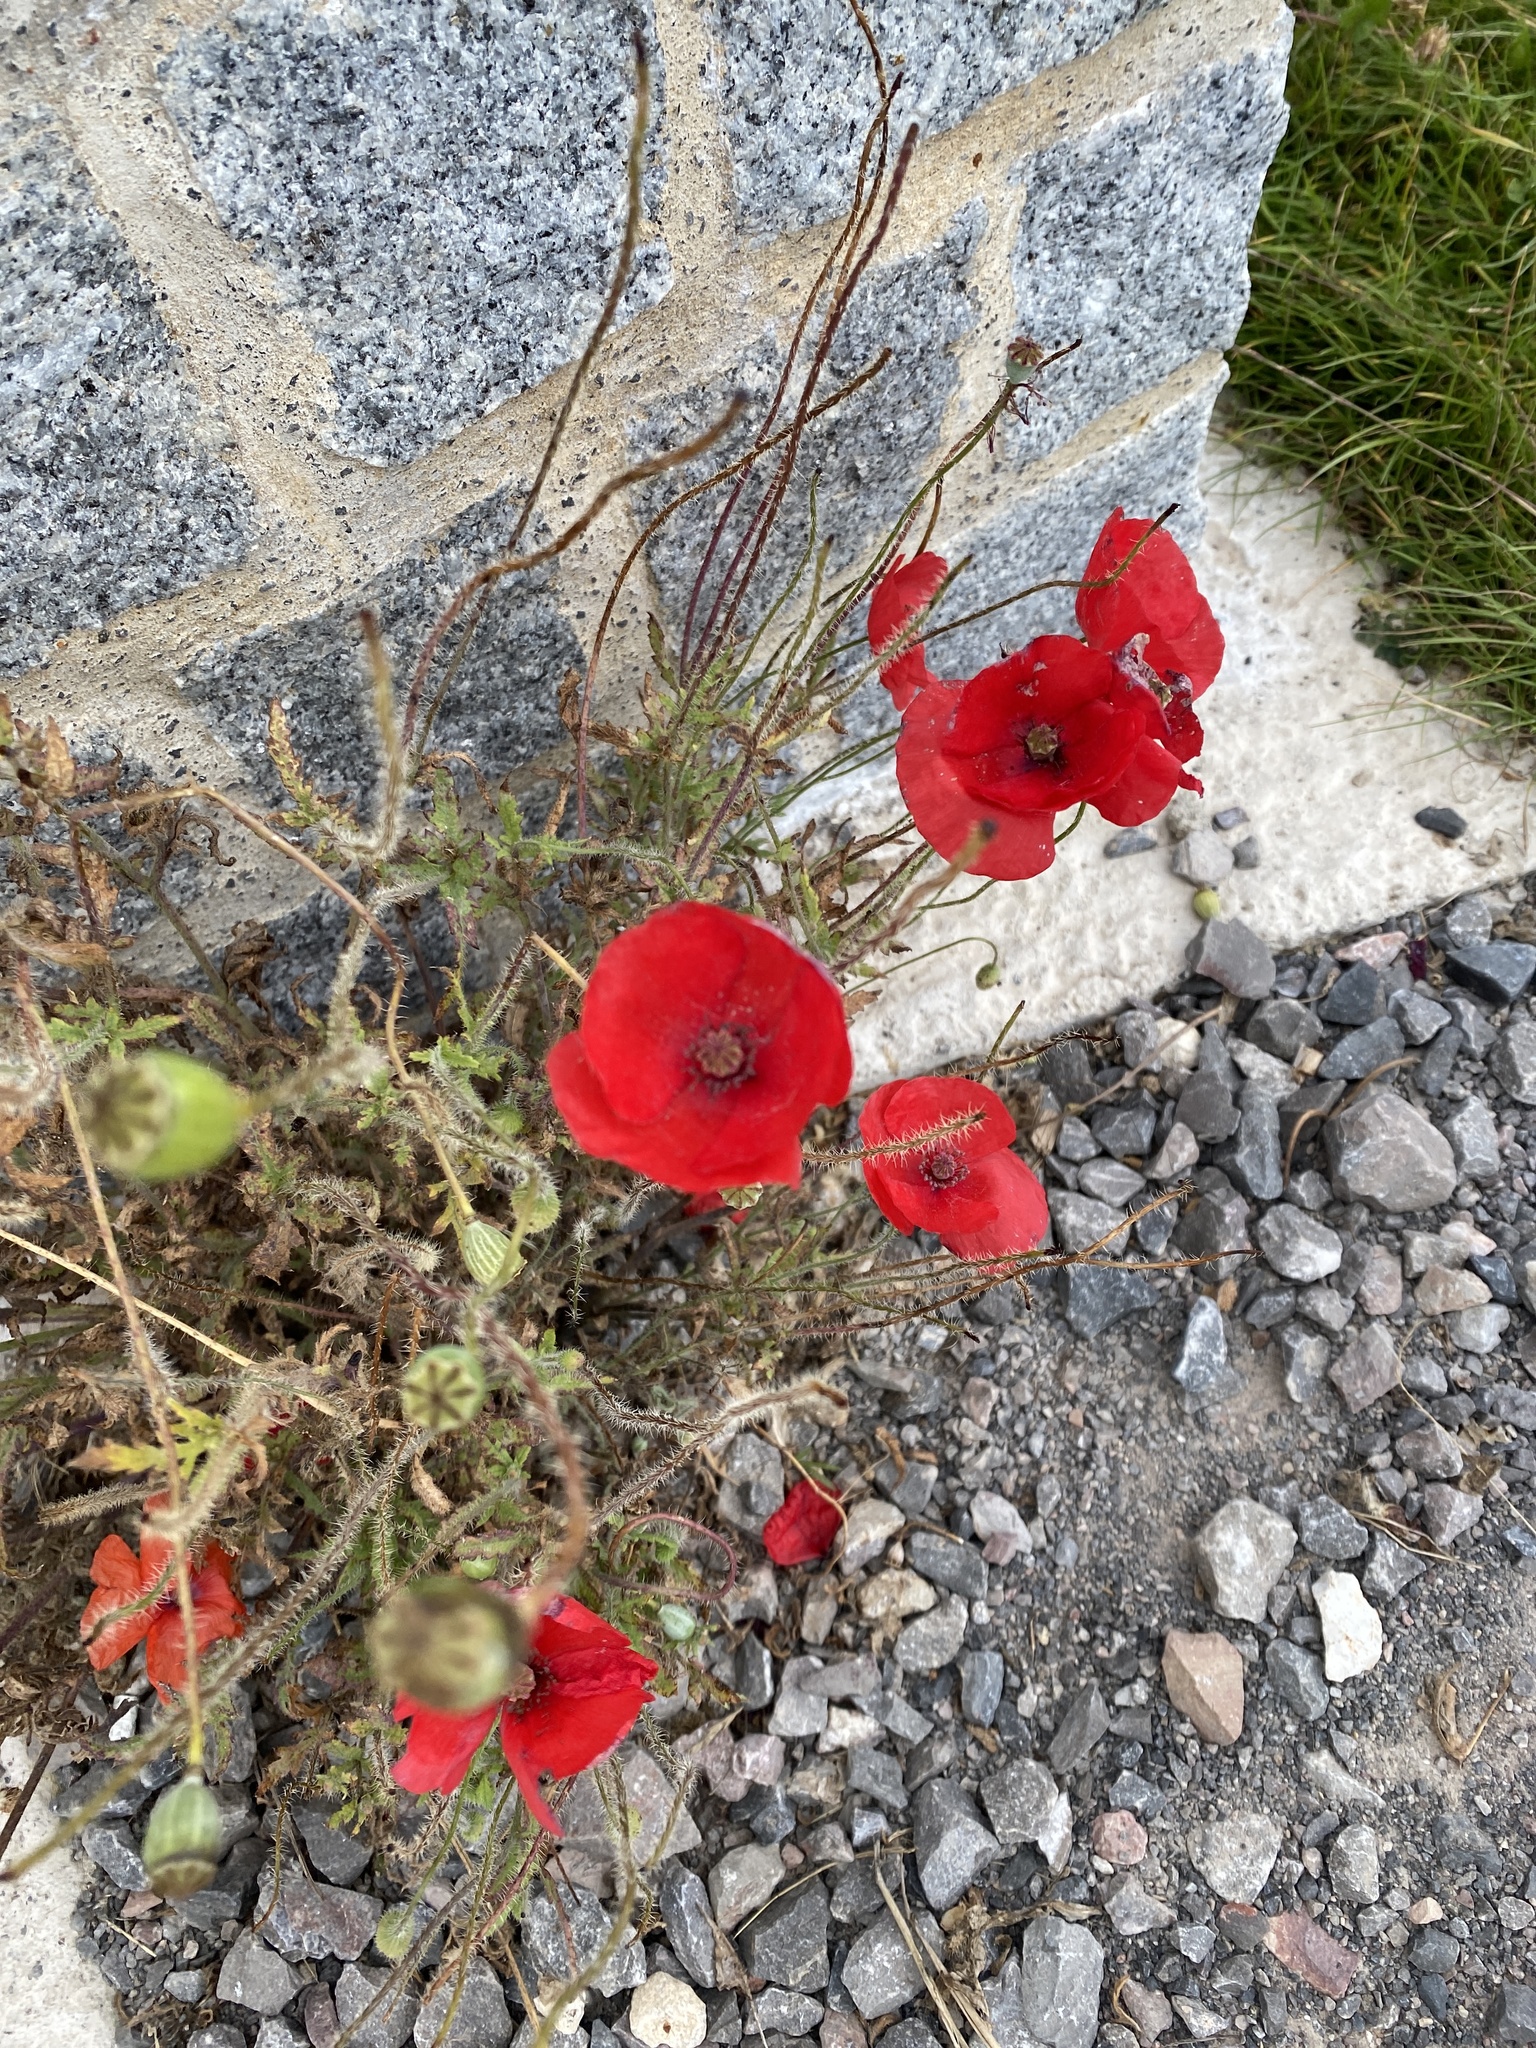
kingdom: Plantae
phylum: Tracheophyta
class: Magnoliopsida
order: Ranunculales
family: Papaveraceae
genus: Papaver
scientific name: Papaver rhoeas
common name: Corn poppy
